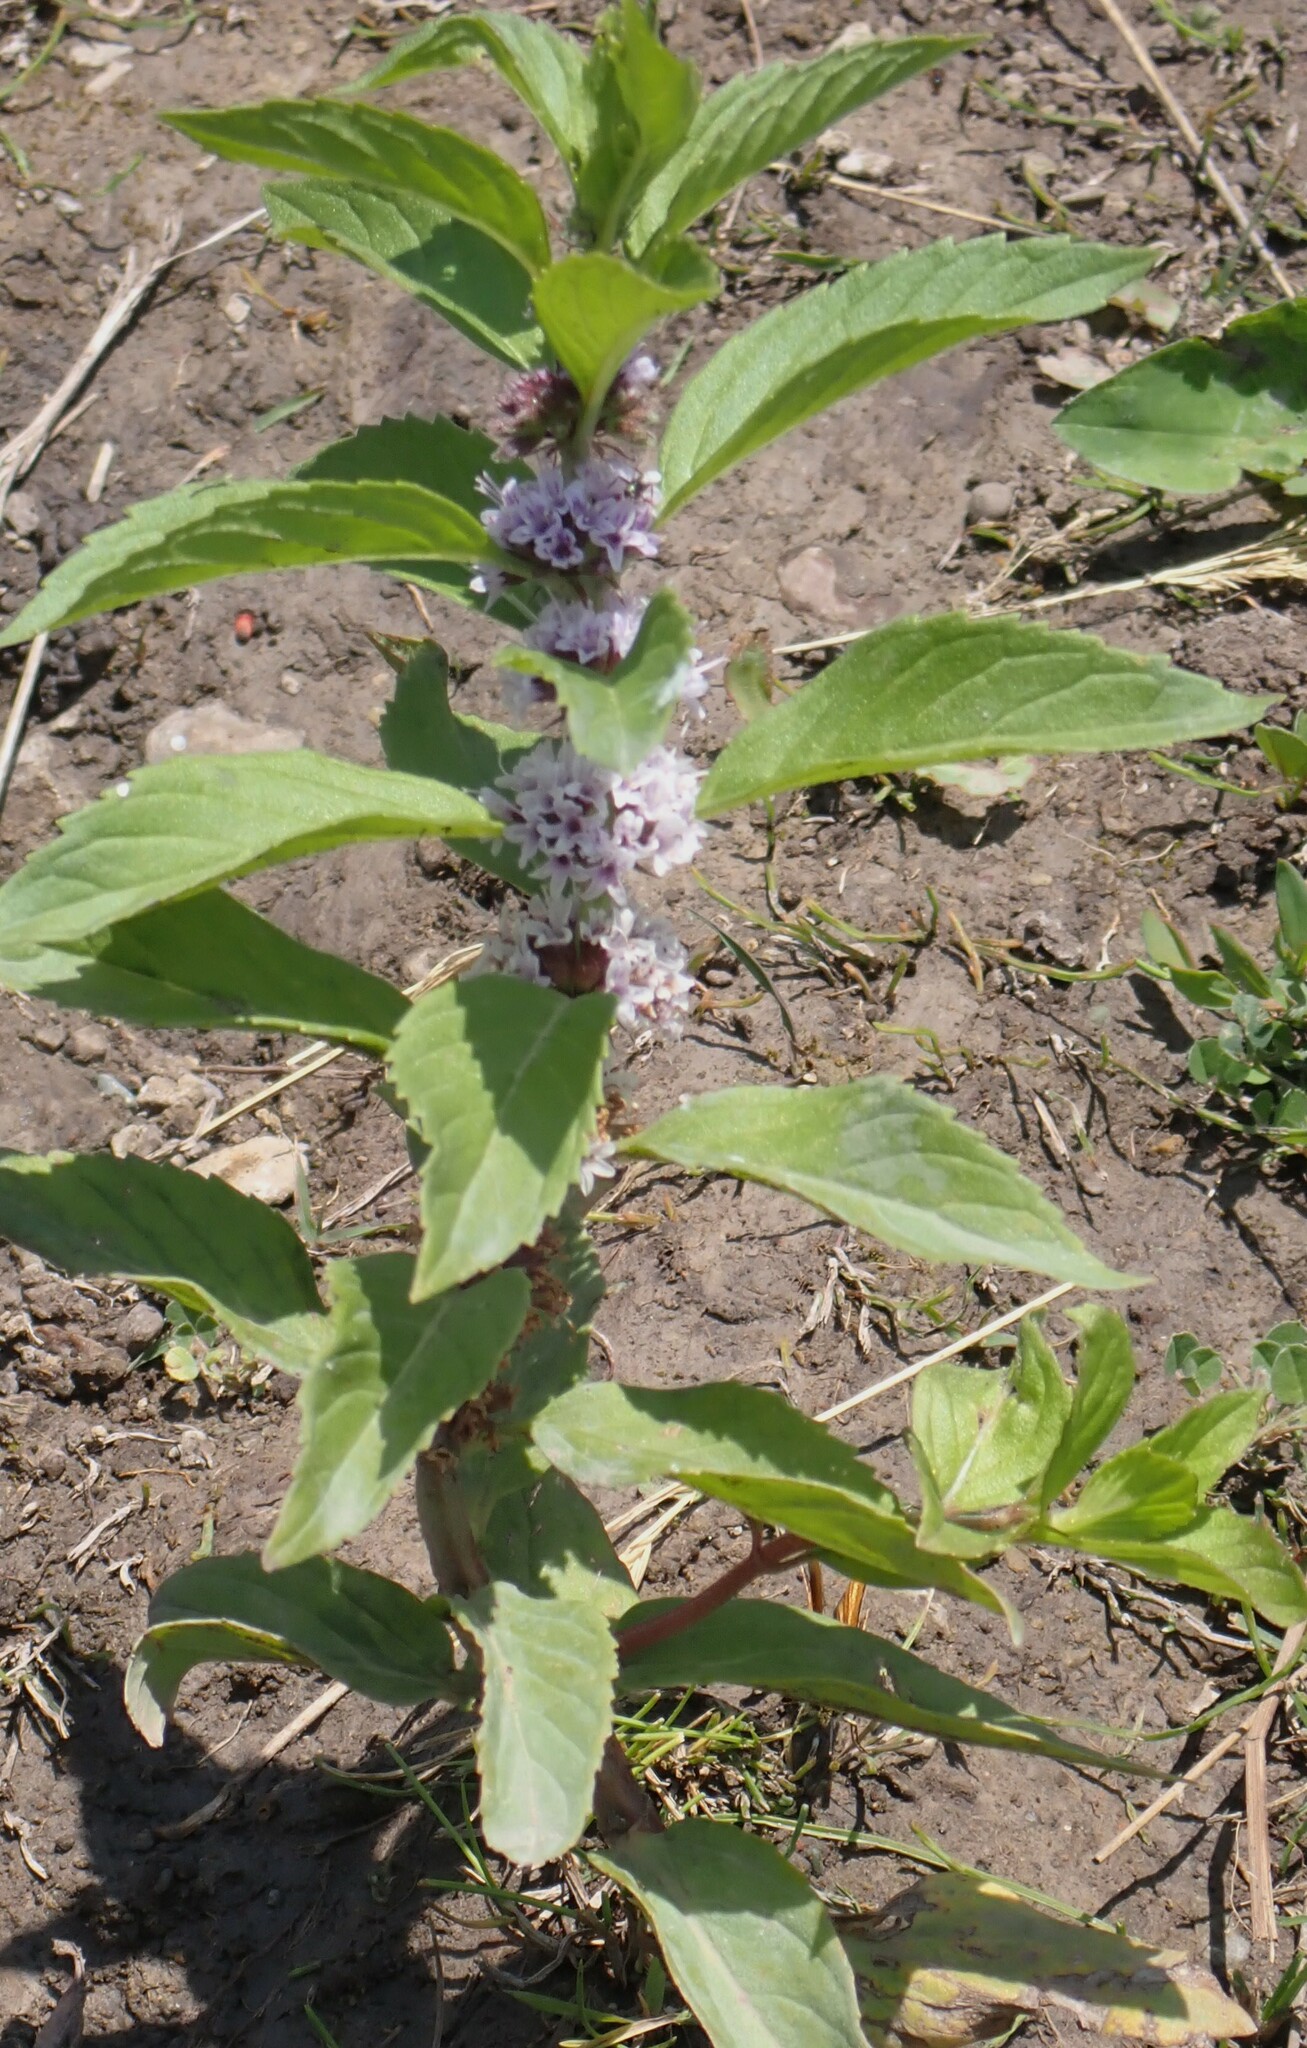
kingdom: Plantae
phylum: Tracheophyta
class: Magnoliopsida
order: Lamiales
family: Lamiaceae
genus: Mentha
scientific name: Mentha canadensis
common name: American corn mint
